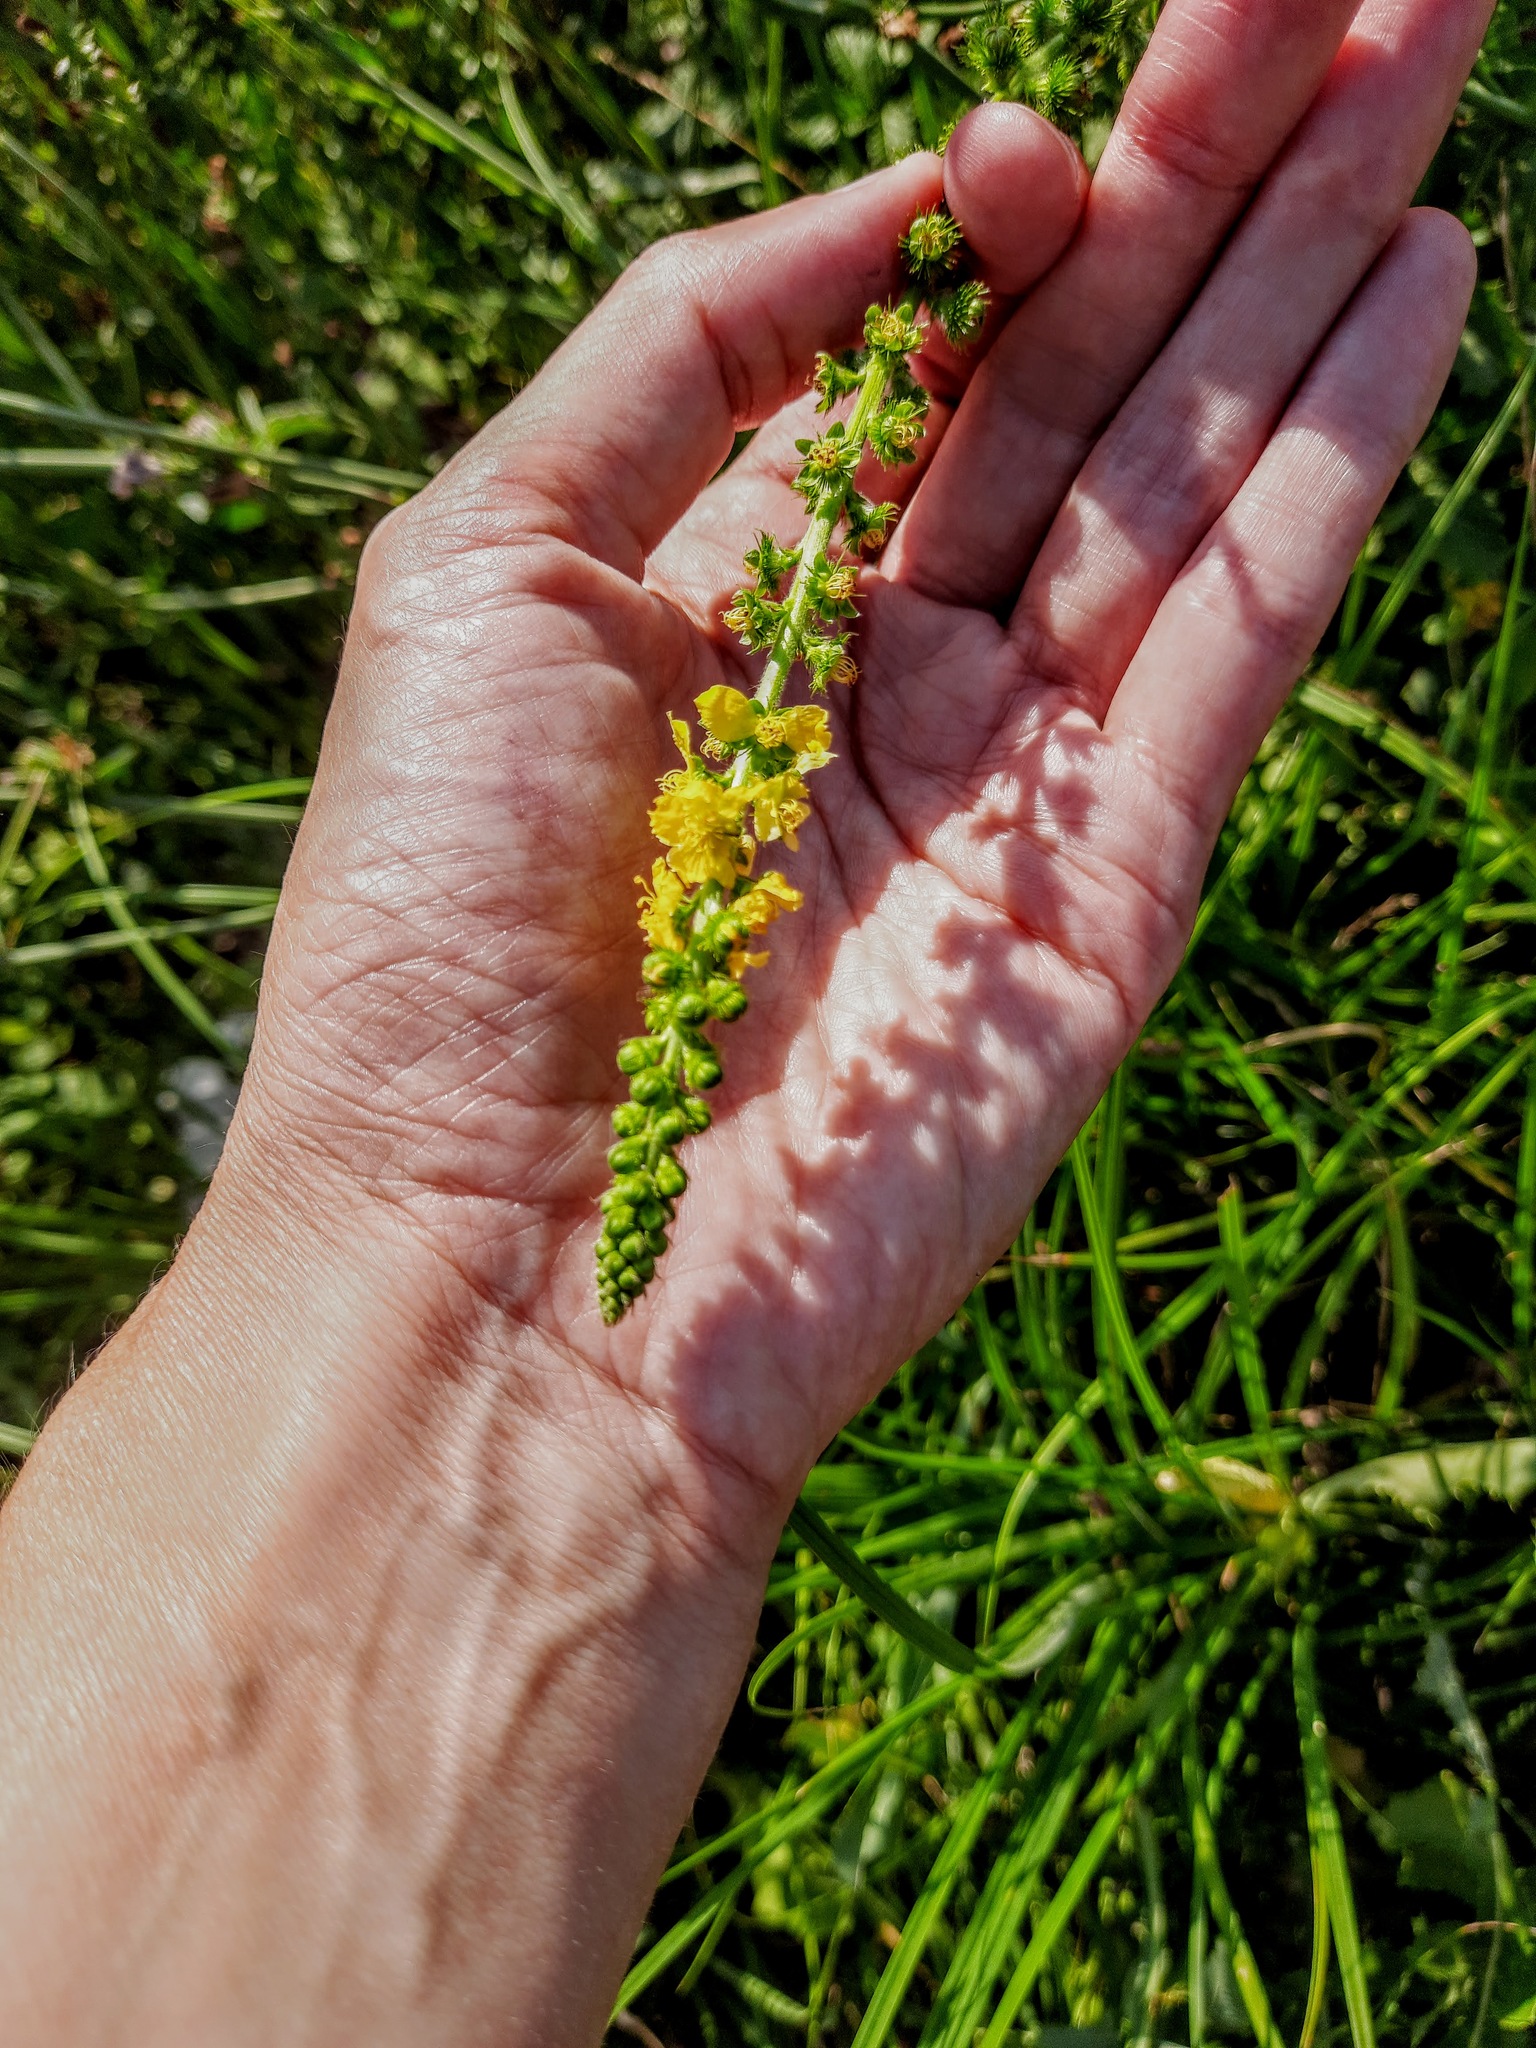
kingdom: Plantae
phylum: Tracheophyta
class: Magnoliopsida
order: Rosales
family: Rosaceae
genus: Agrimonia
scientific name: Agrimonia eupatoria
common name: Agrimony
